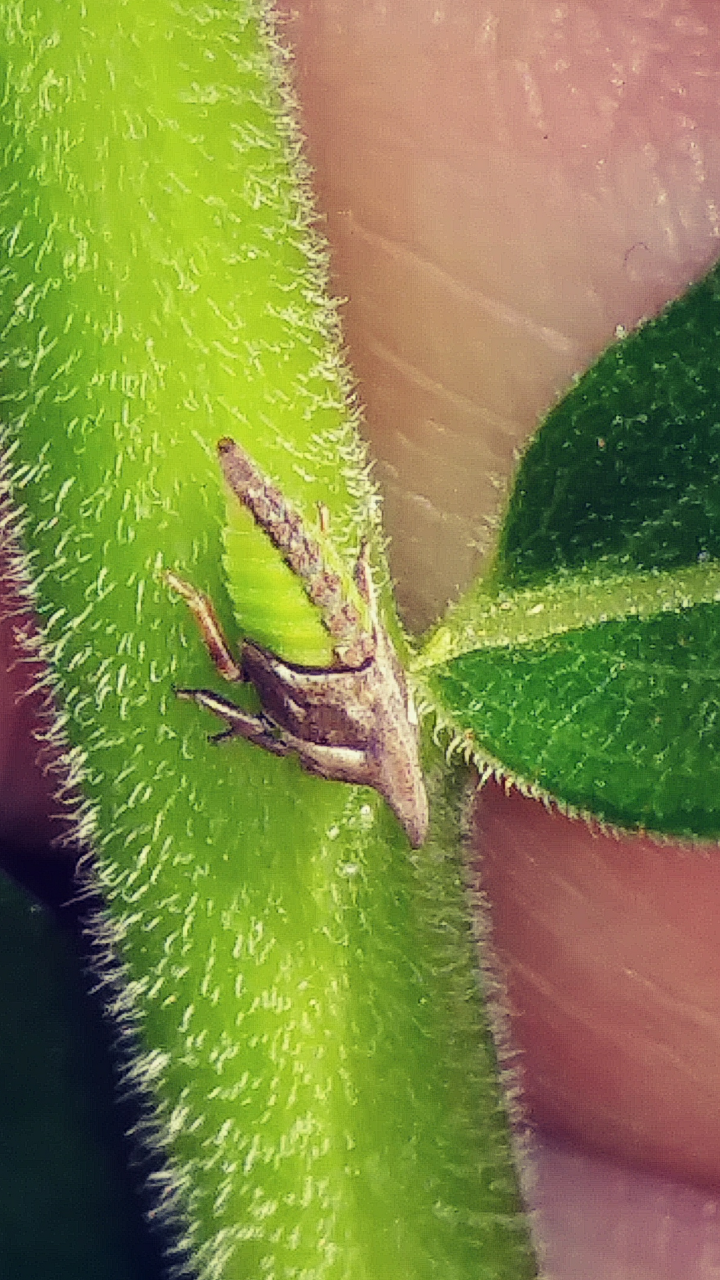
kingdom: Animalia
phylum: Arthropoda
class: Insecta
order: Hemiptera
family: Membracidae
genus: Enchenopa
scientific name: Enchenopa latipes
